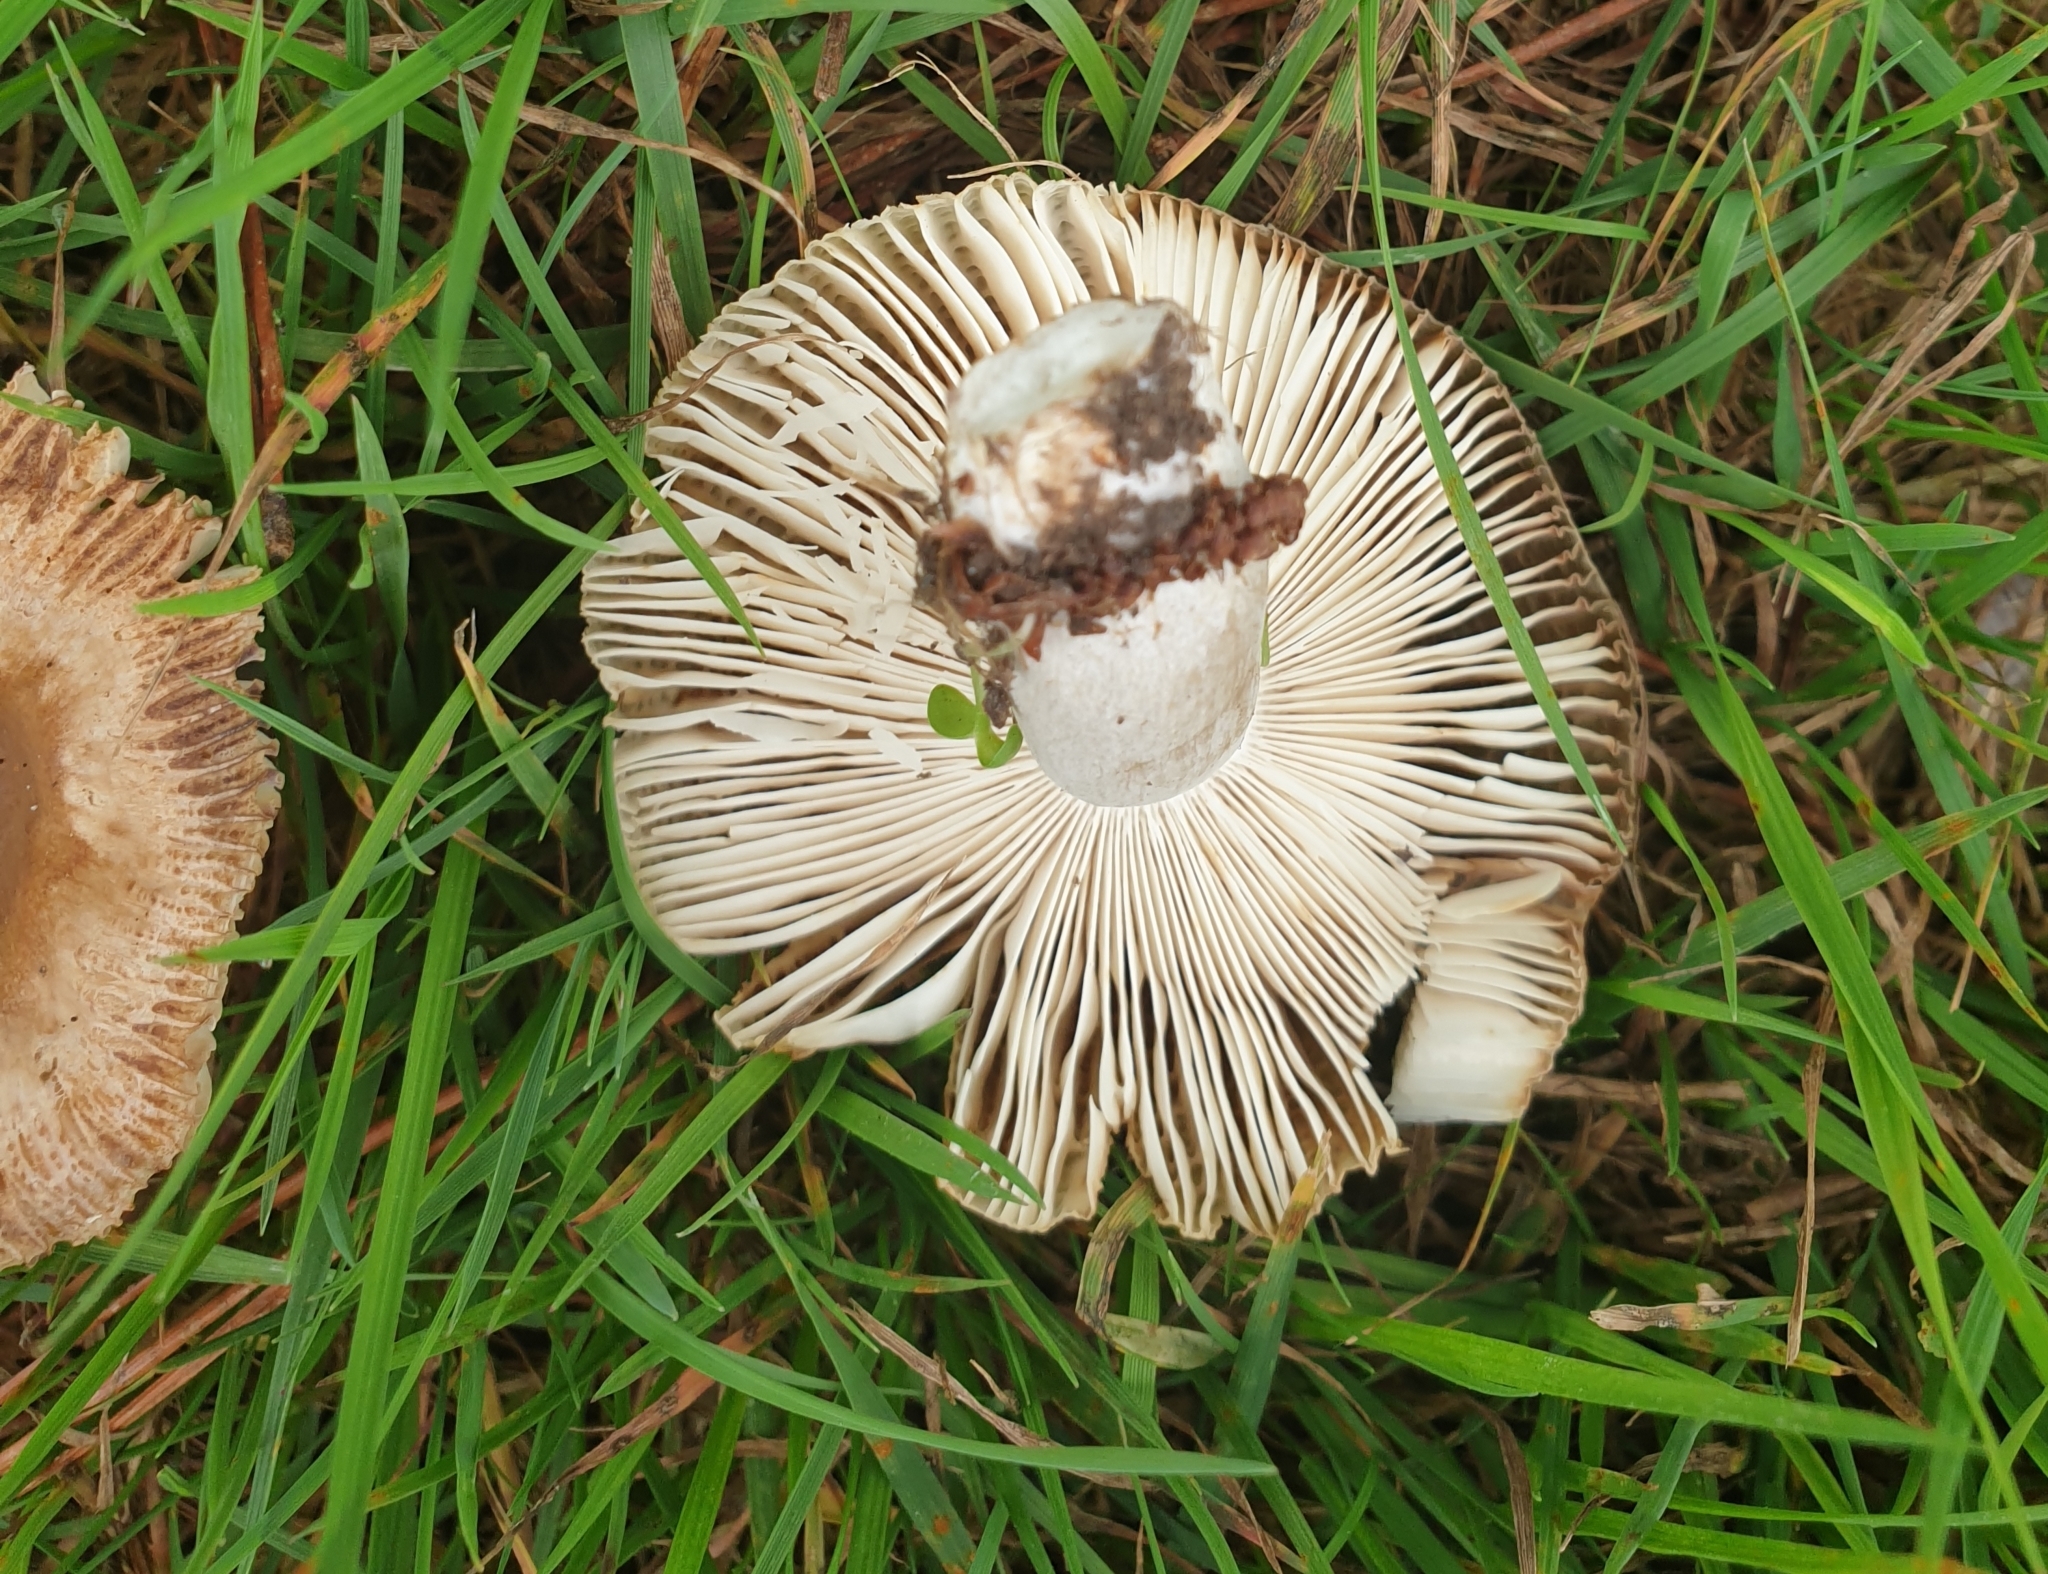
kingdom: Fungi
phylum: Basidiomycota
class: Agaricomycetes
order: Russulales
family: Russulaceae
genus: Russula
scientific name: Russula amoenolens
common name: Camembert brittlegill
